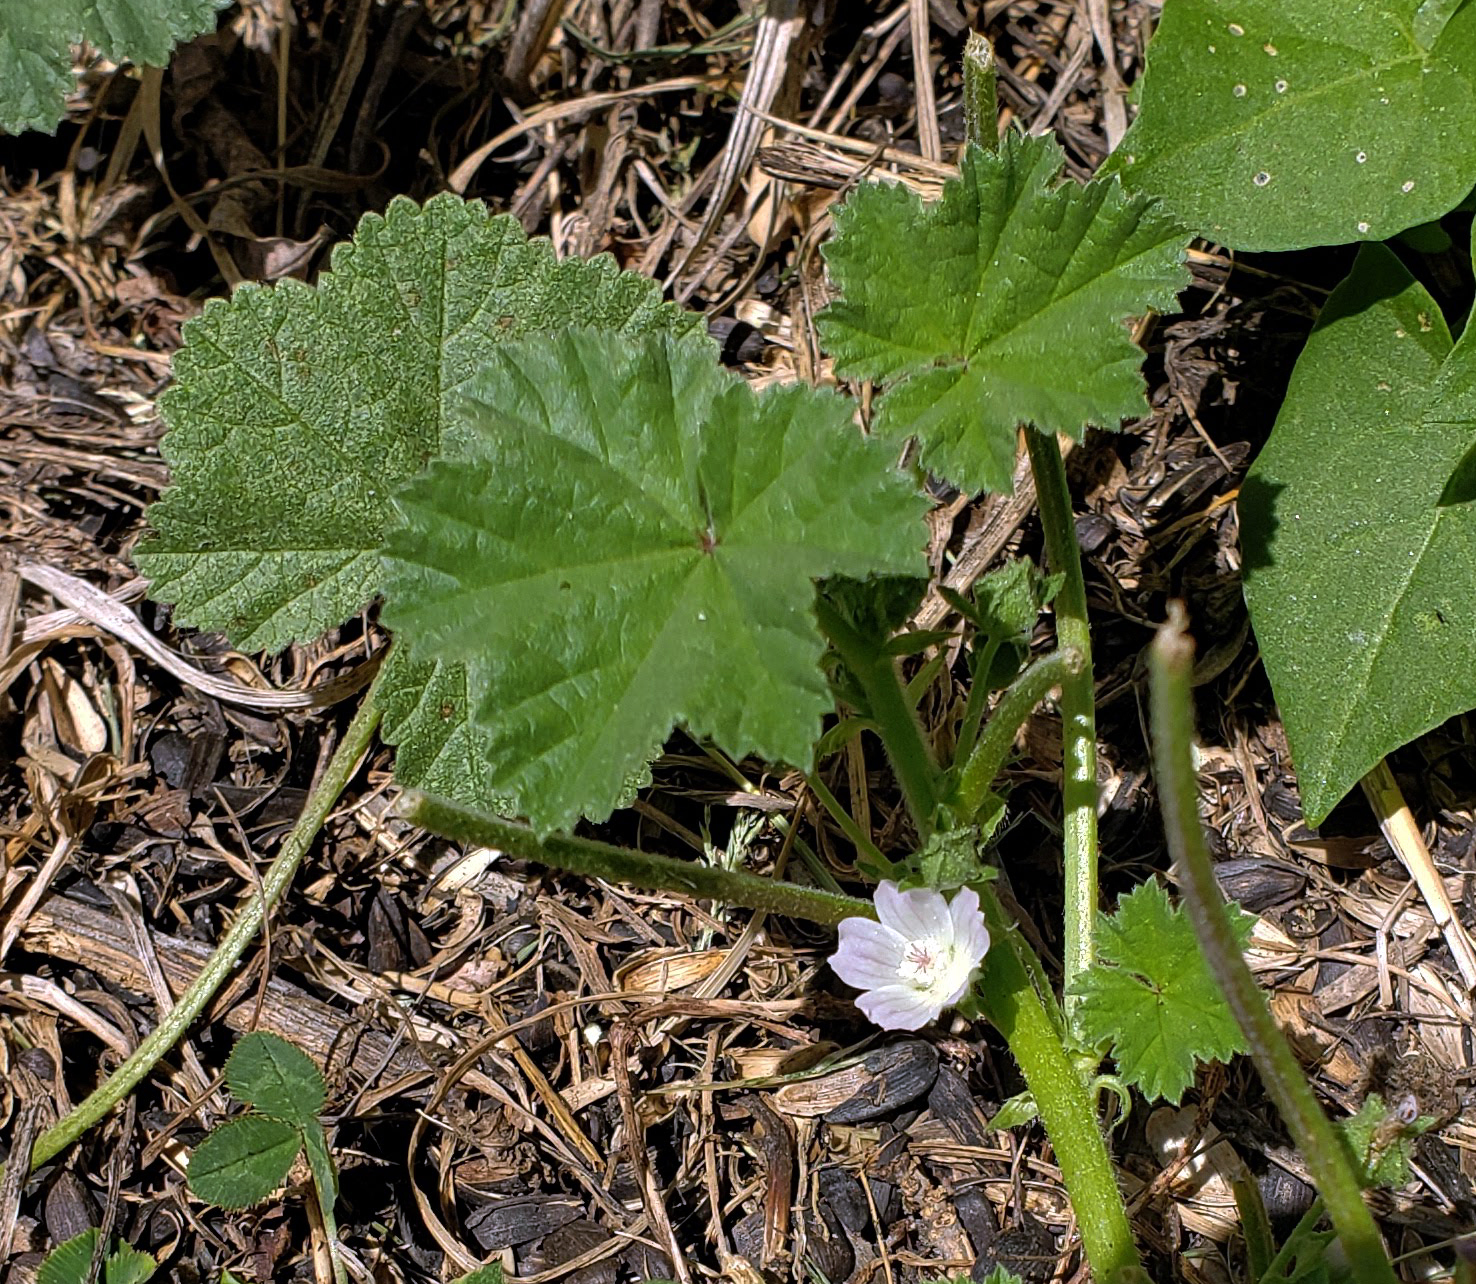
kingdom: Plantae
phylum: Tracheophyta
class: Magnoliopsida
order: Malvales
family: Malvaceae
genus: Malva
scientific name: Malva neglecta
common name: Common mallow
